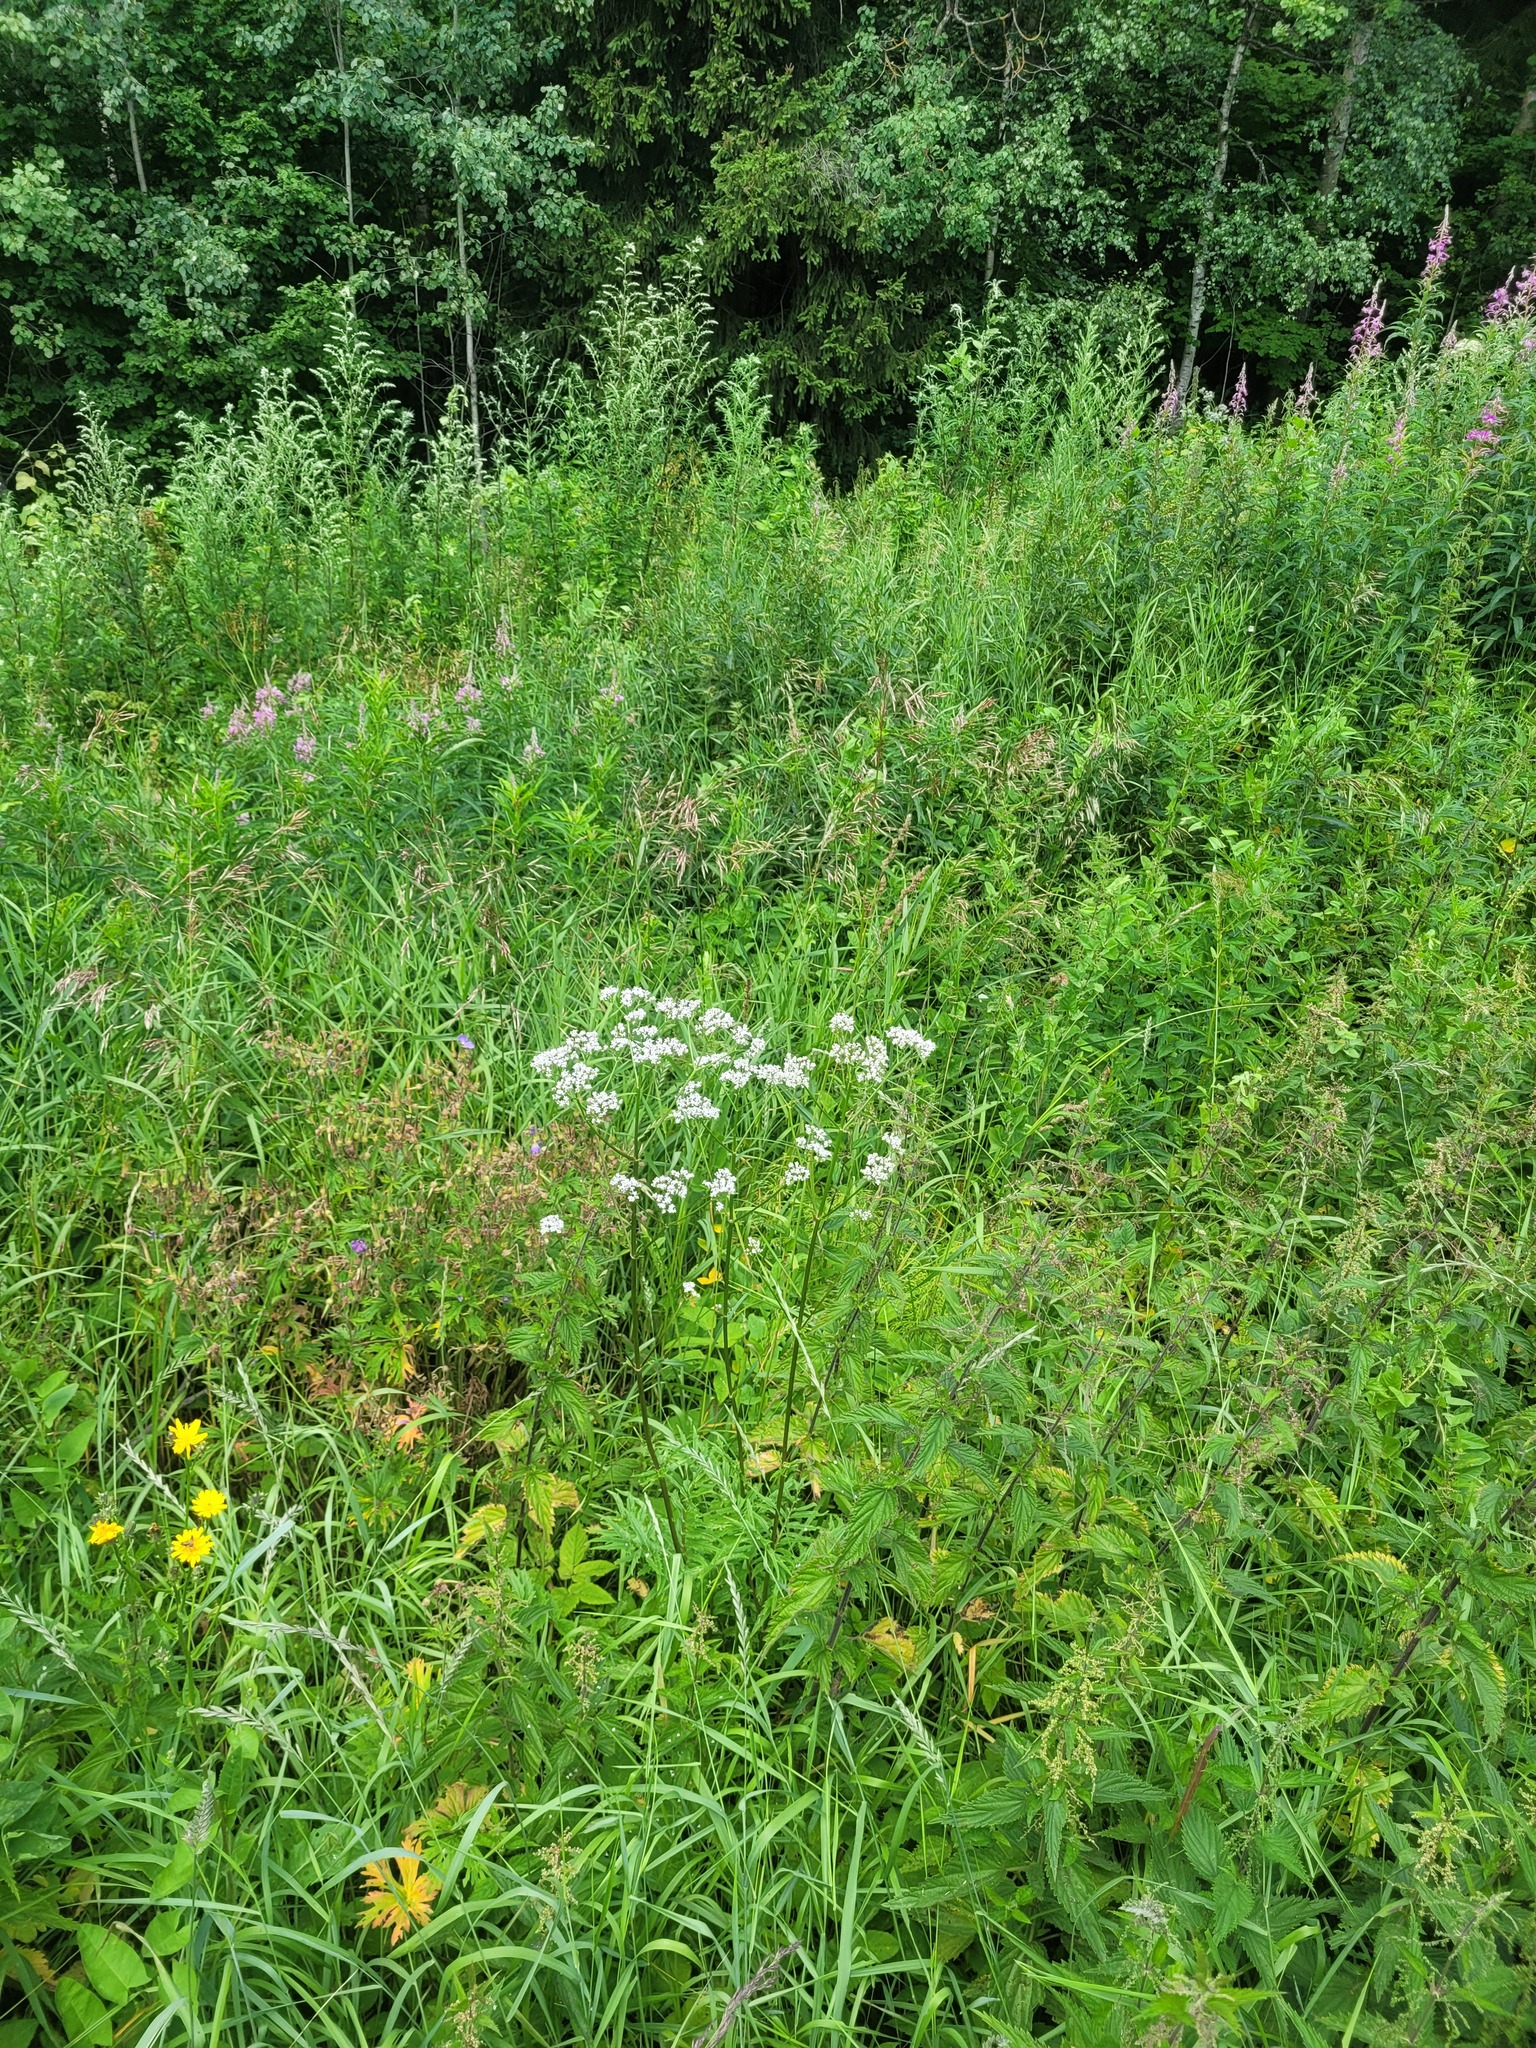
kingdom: Plantae
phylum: Tracheophyta
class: Magnoliopsida
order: Dipsacales
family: Caprifoliaceae
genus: Valeriana
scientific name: Valeriana officinalis
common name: Common valerian
